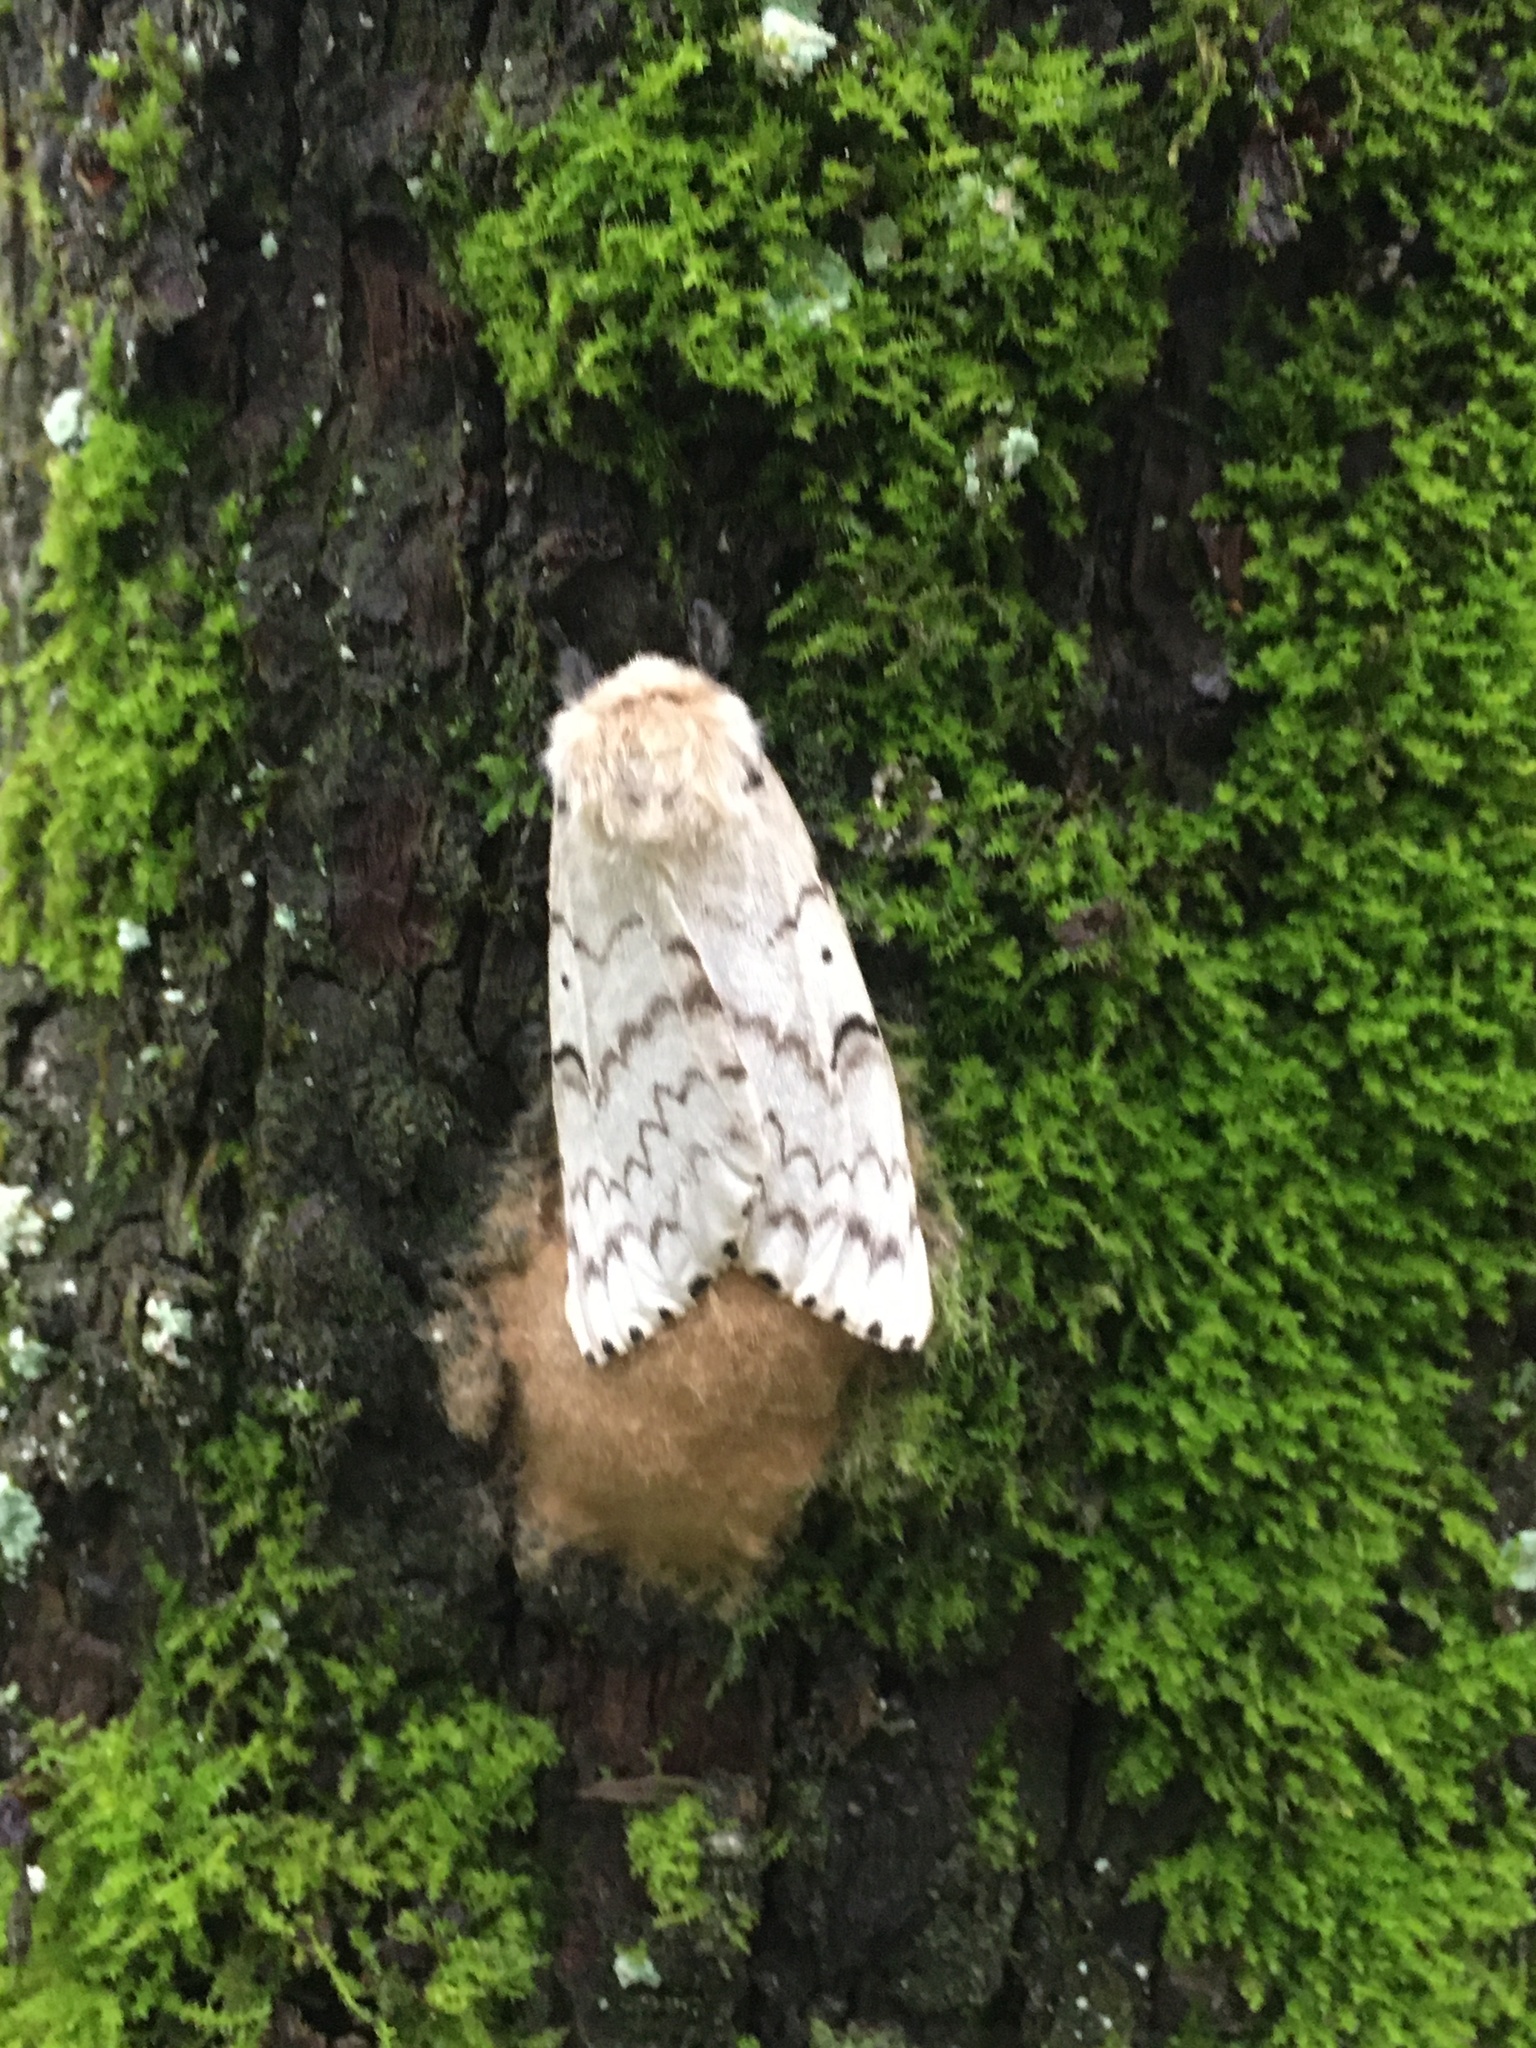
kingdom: Animalia
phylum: Arthropoda
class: Insecta
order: Lepidoptera
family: Erebidae
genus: Lymantria
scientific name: Lymantria dispar
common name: Gypsy moth
